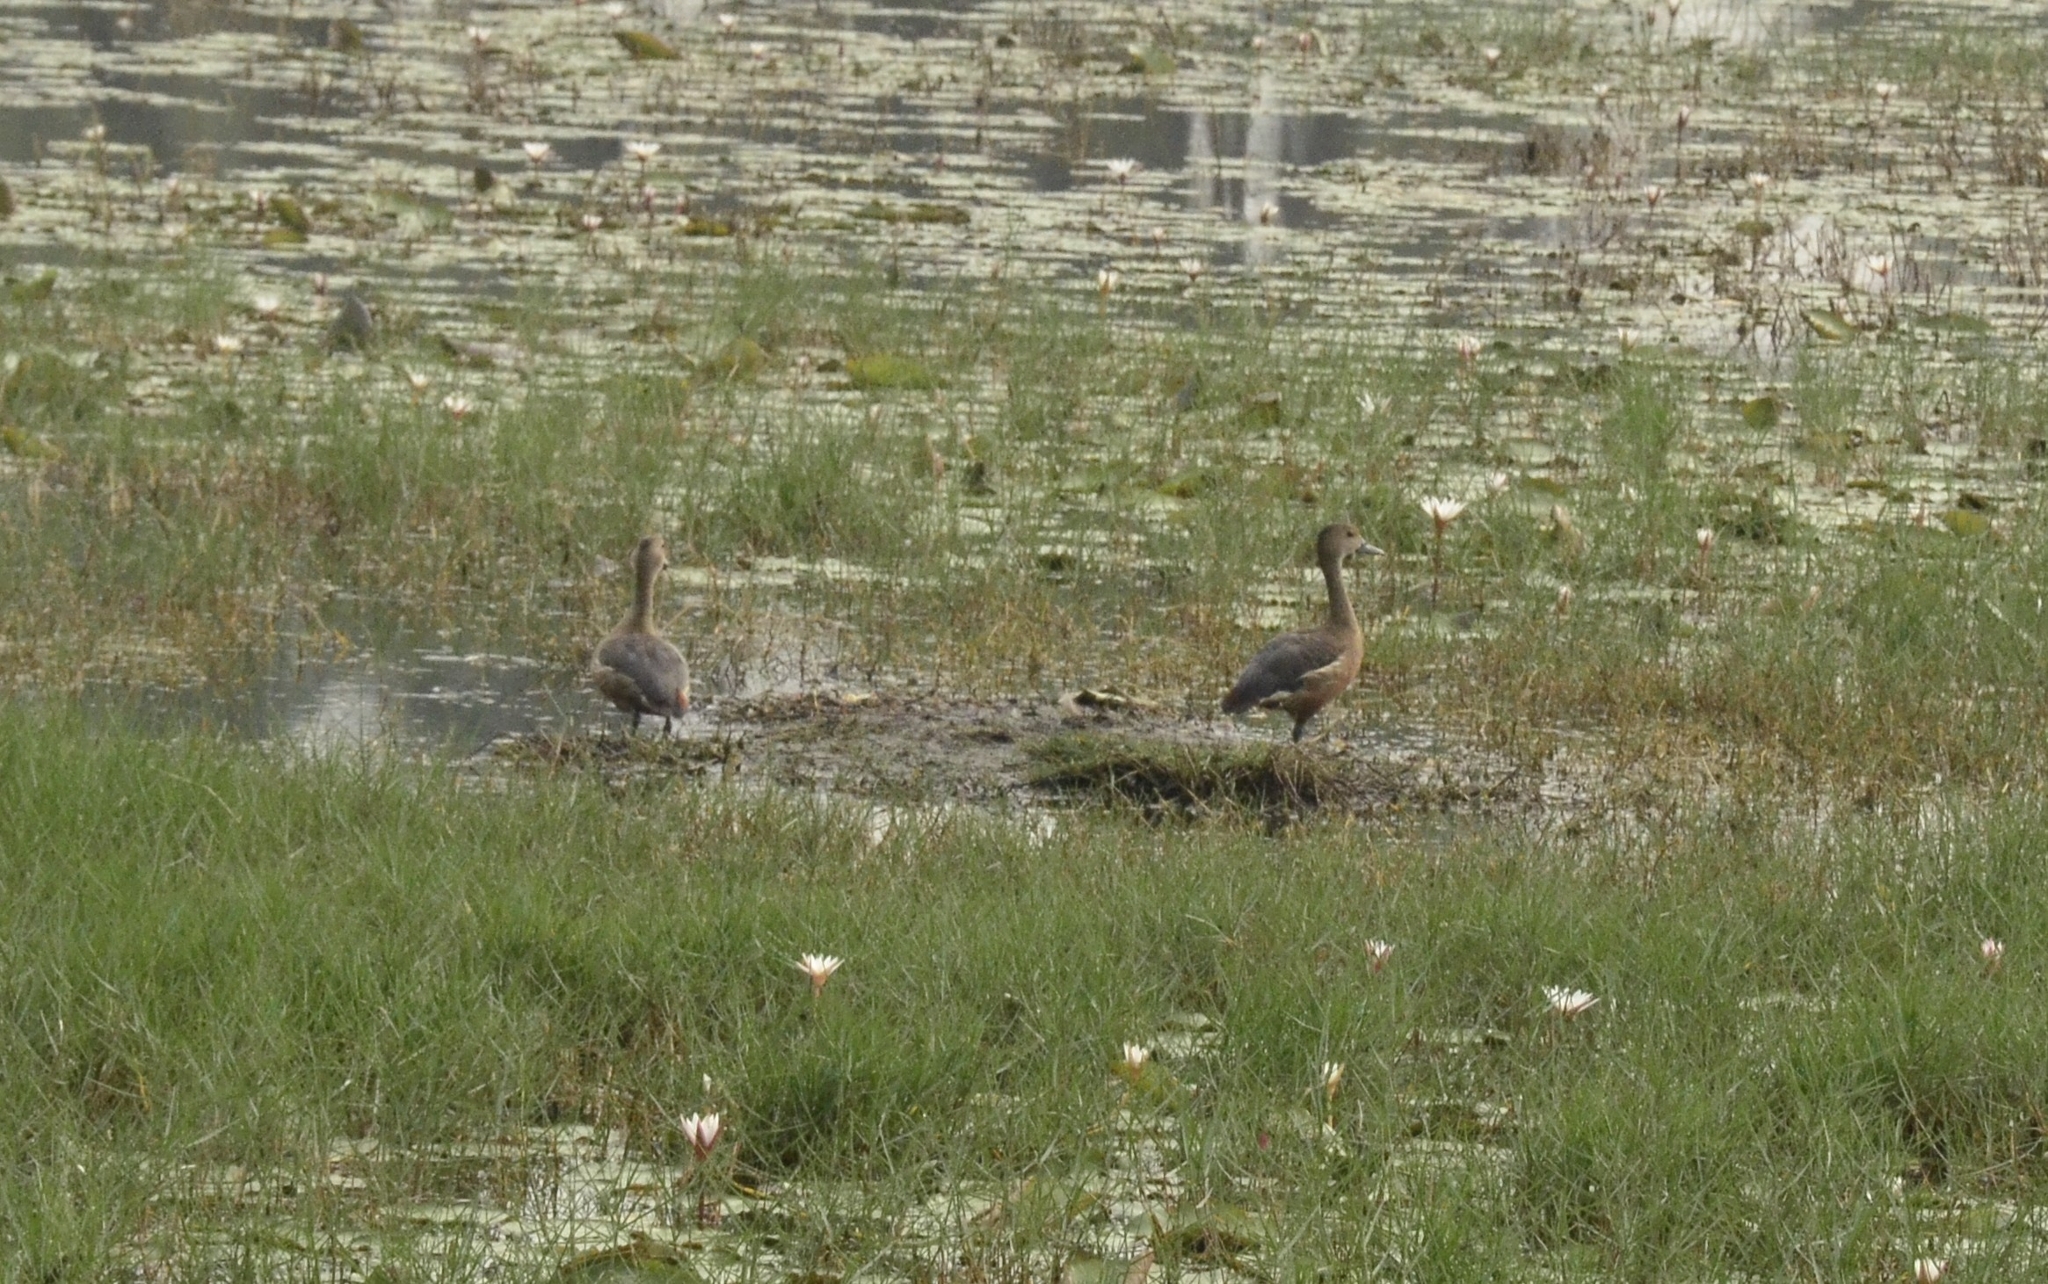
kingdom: Animalia
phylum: Chordata
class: Aves
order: Anseriformes
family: Anatidae
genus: Dendrocygna
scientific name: Dendrocygna javanica
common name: Lesser whistling-duck
